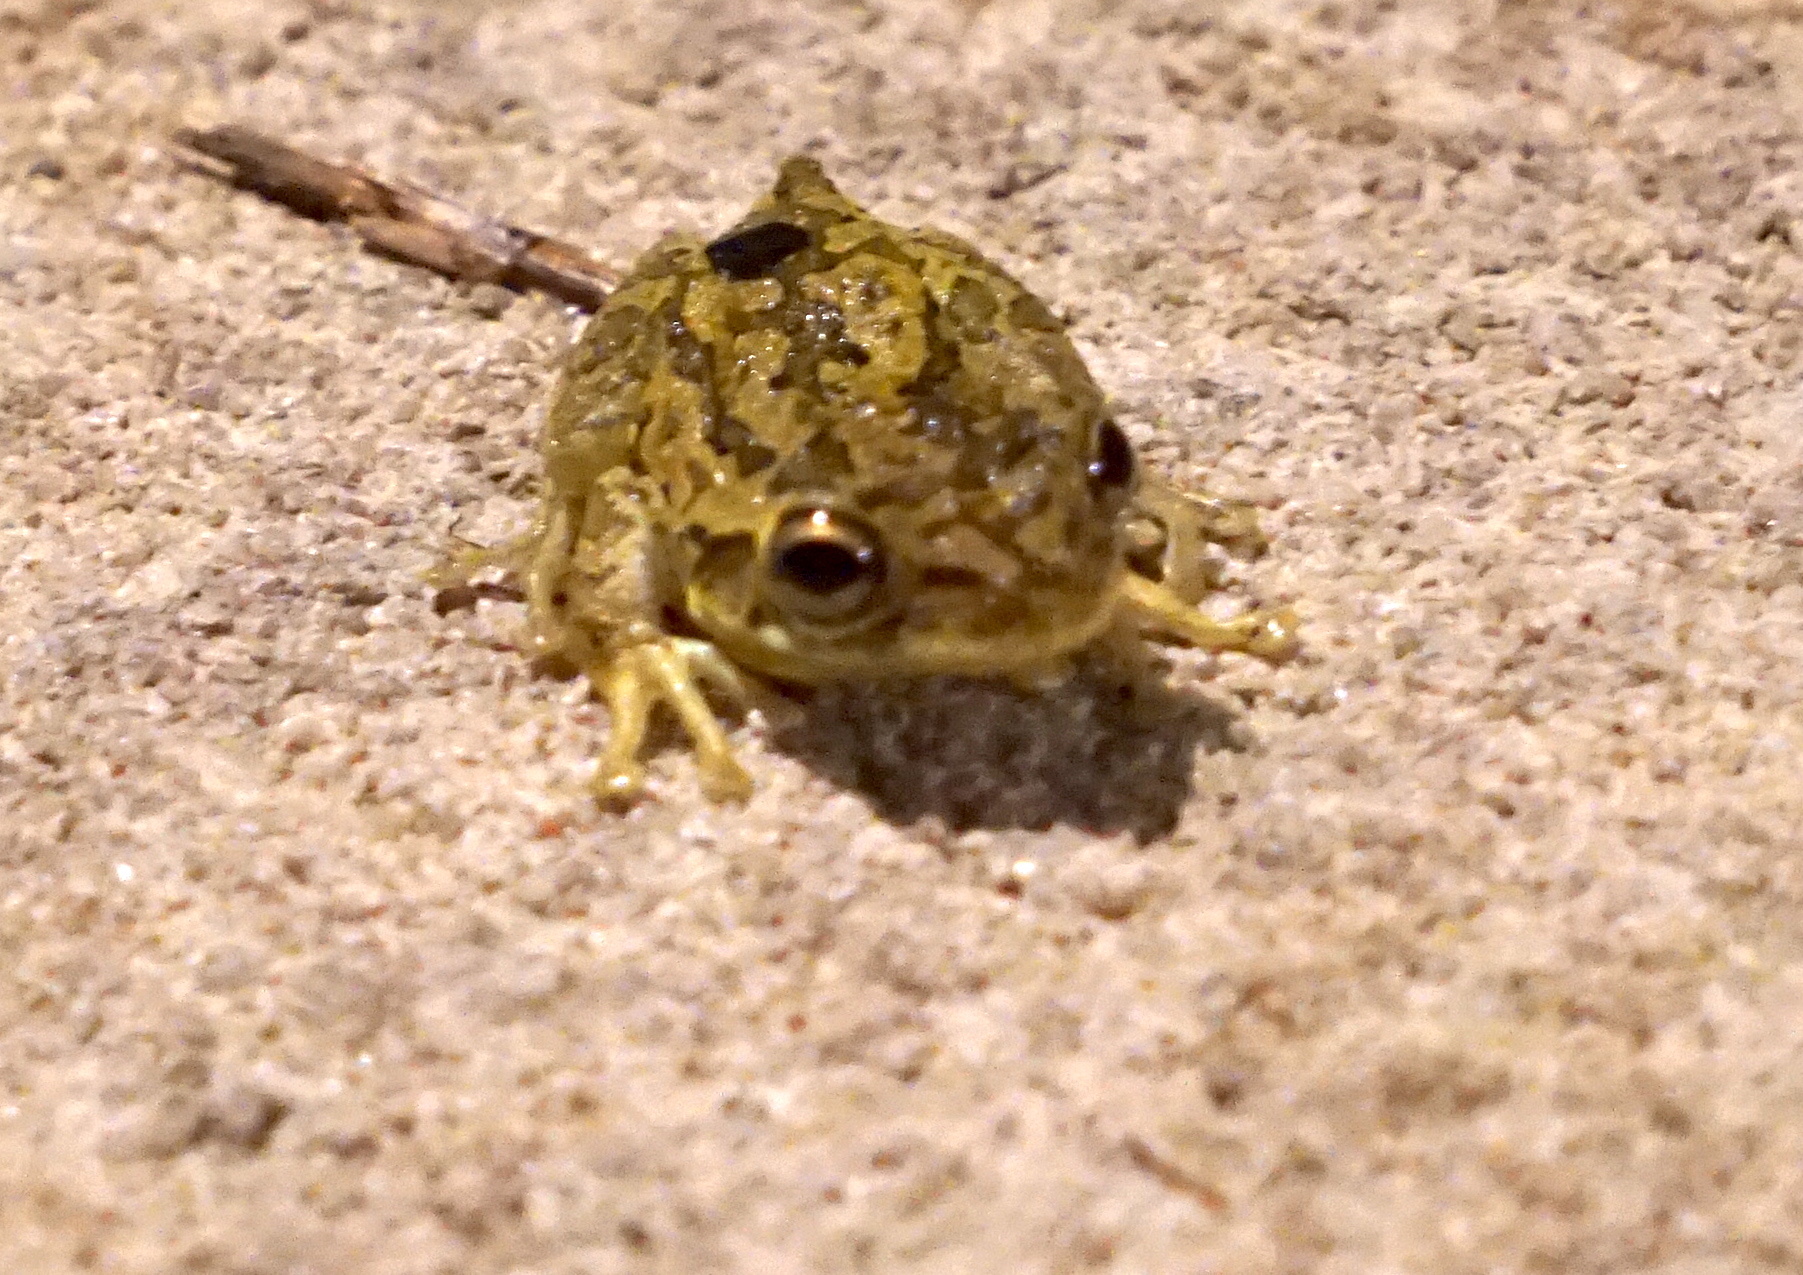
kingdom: Animalia
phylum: Chordata
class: Amphibia
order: Anura
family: Hylidae
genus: Osteopilus
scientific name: Osteopilus septentrionalis
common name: Cuban treefrog
